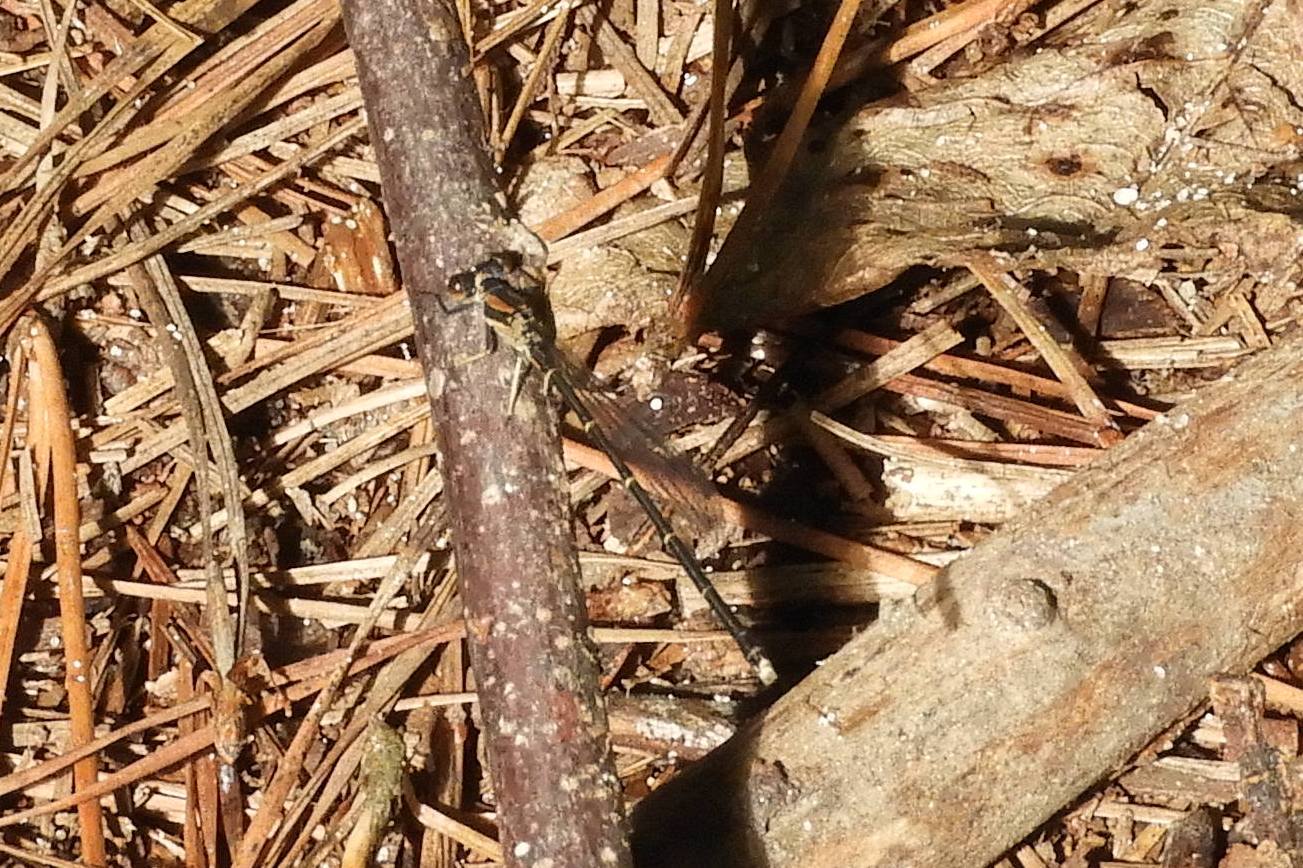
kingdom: Animalia
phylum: Arthropoda
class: Insecta
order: Odonata
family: Coenagrionidae
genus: Argia
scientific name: Argia tibialis
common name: Blue-tipped dancer
